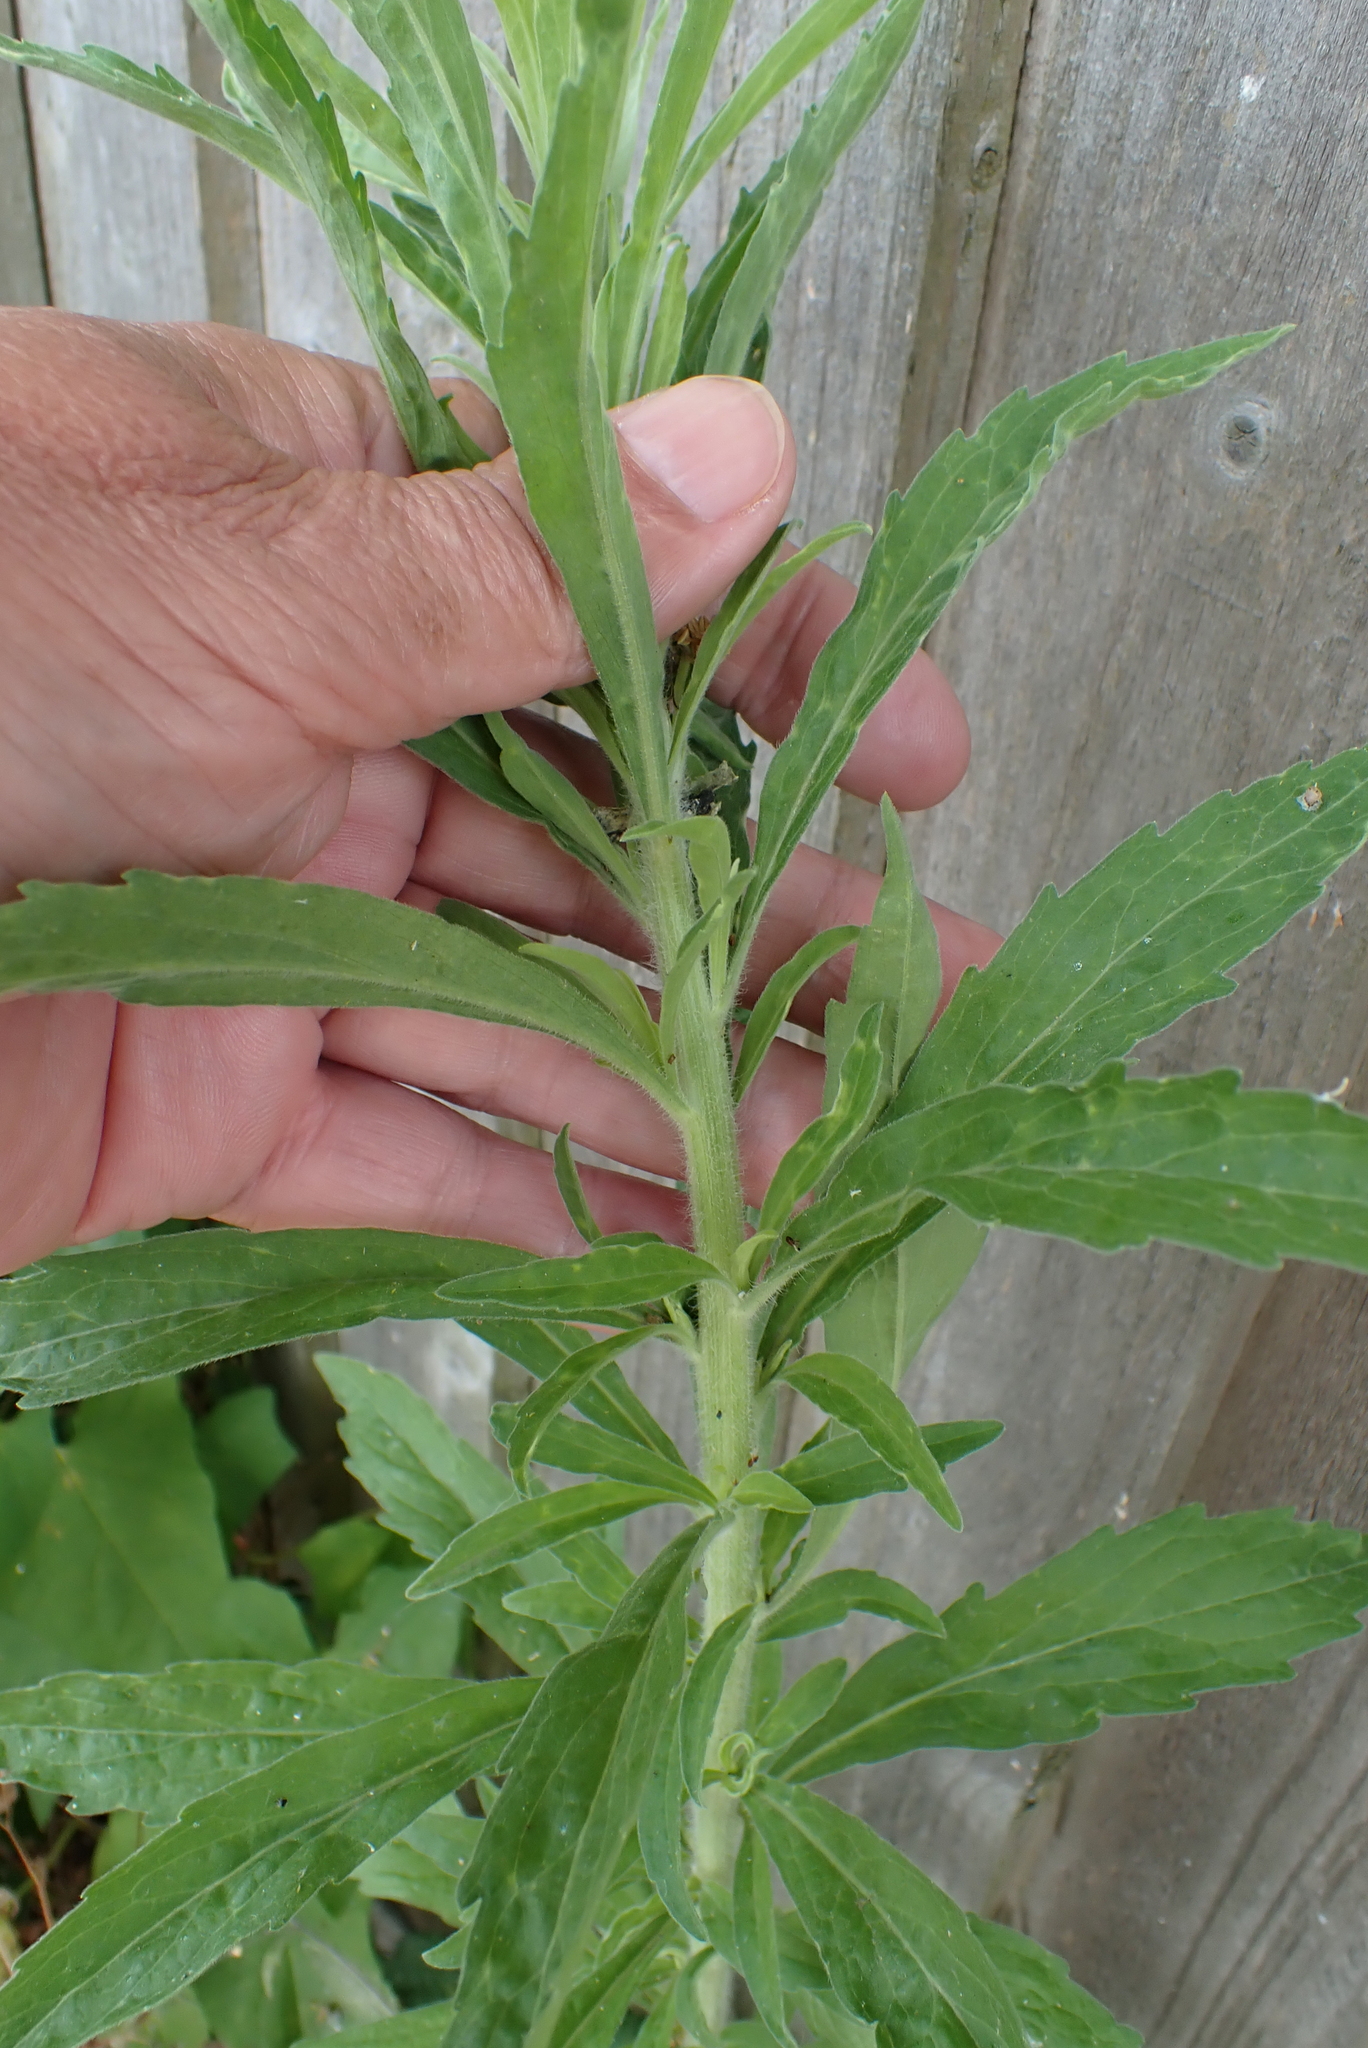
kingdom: Plantae
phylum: Tracheophyta
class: Magnoliopsida
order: Asterales
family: Asteraceae
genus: Erigeron
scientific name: Erigeron sumatrensis
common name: Daisy
